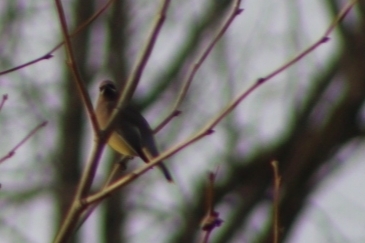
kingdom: Animalia
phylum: Chordata
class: Aves
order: Passeriformes
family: Bombycillidae
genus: Bombycilla
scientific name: Bombycilla cedrorum
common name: Cedar waxwing
